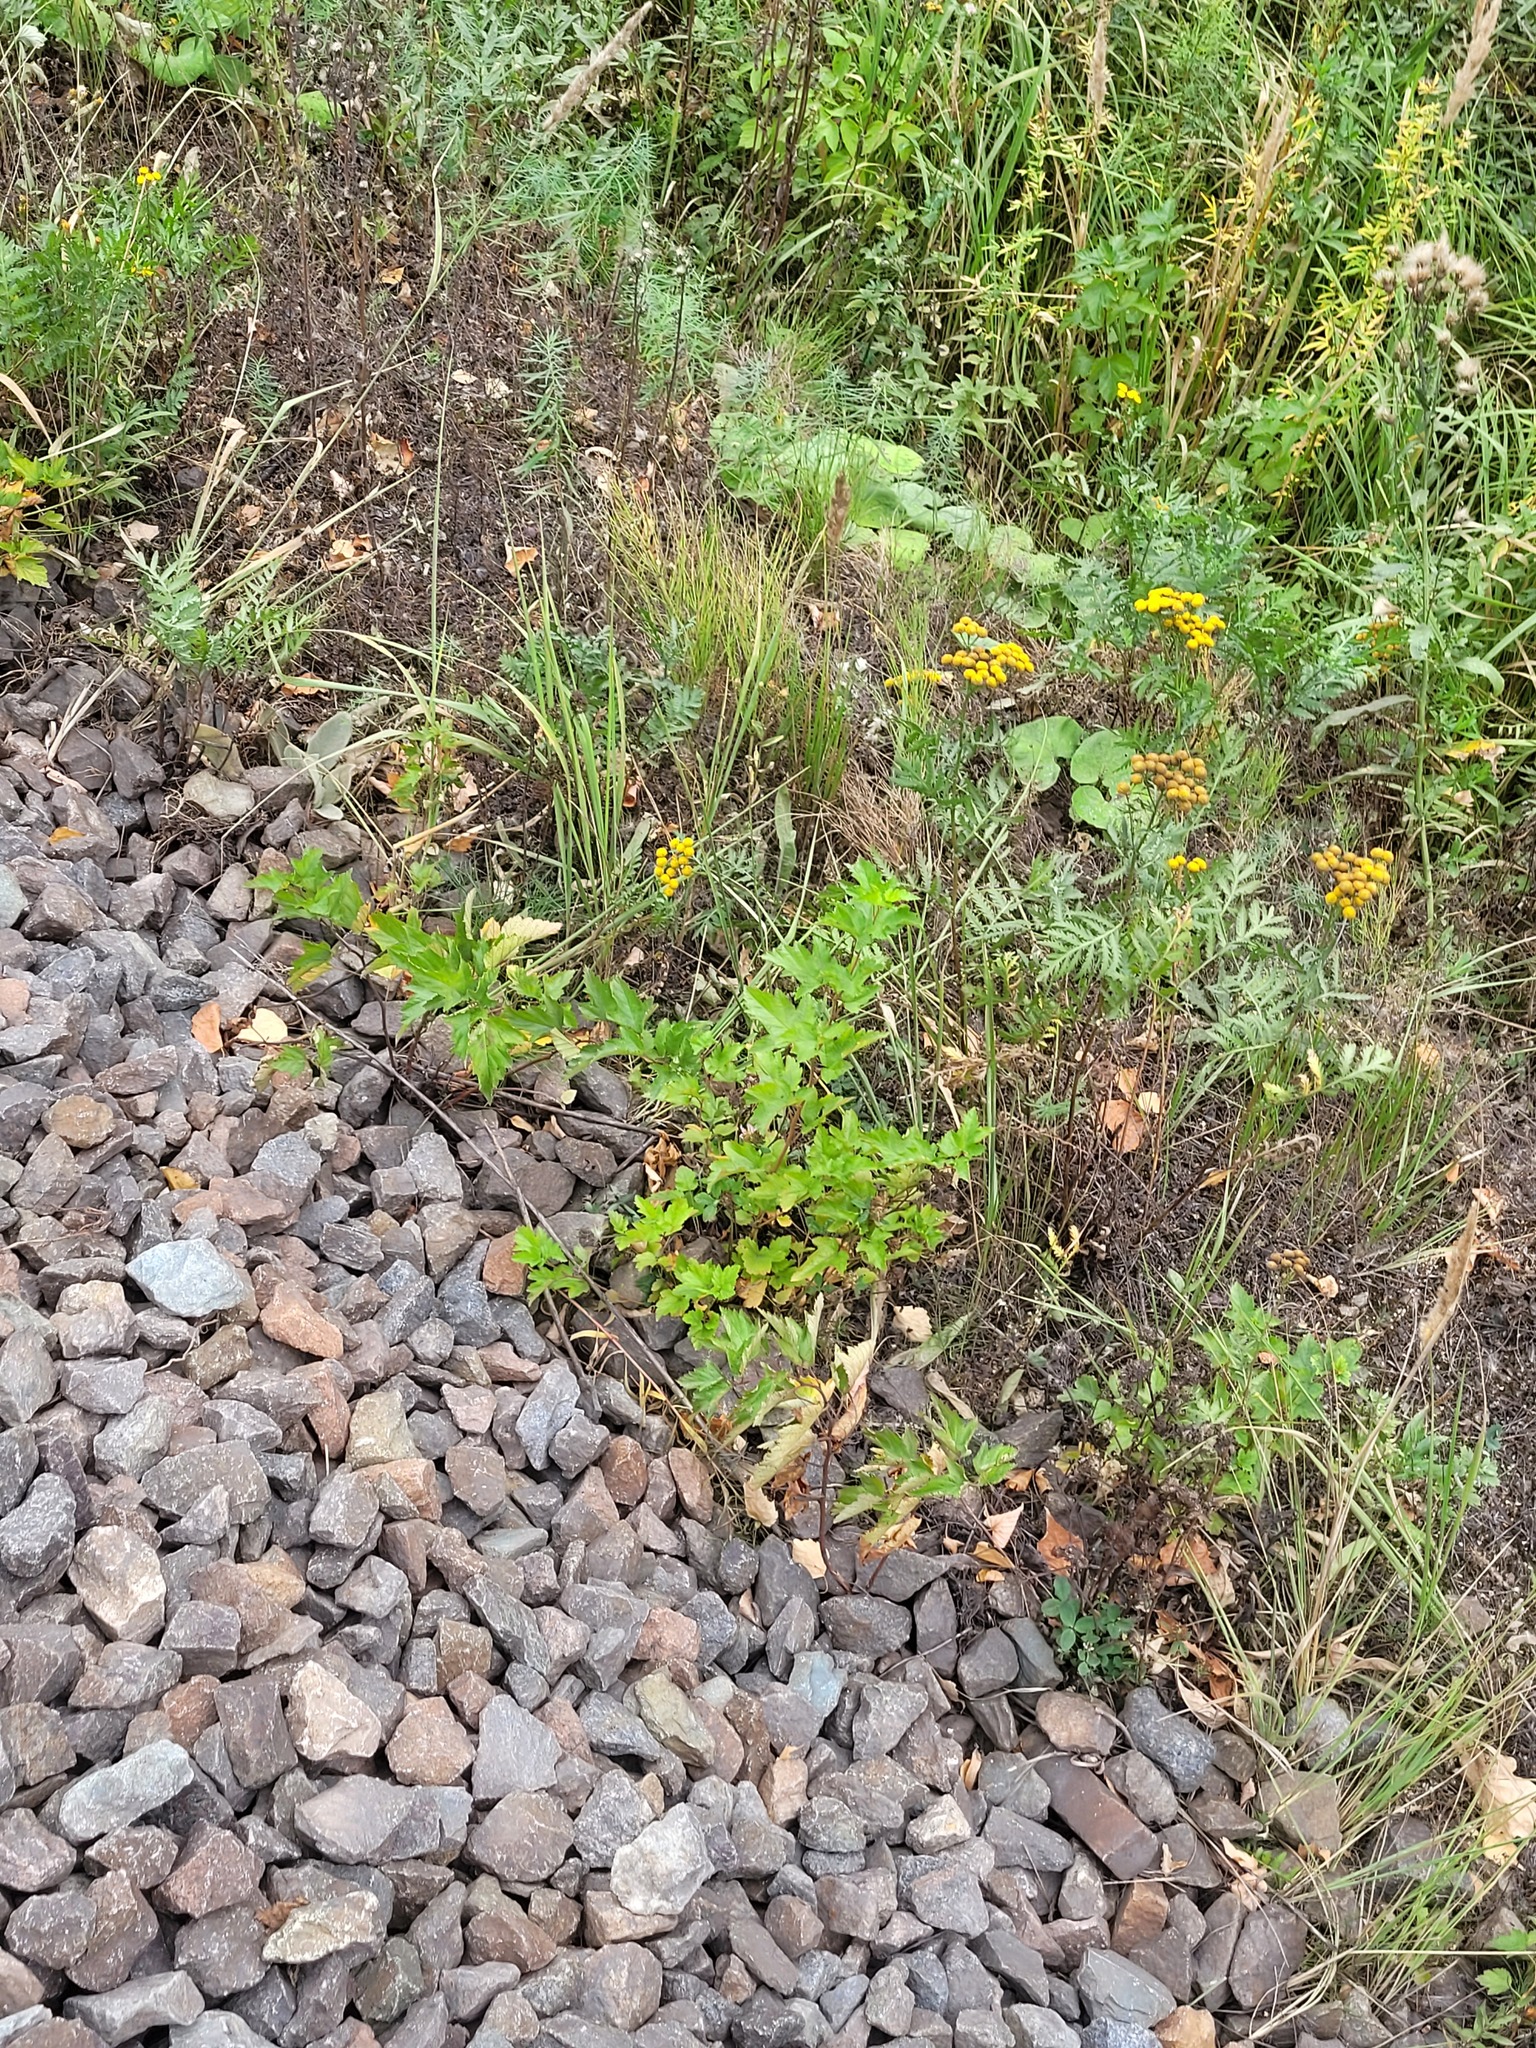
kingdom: Plantae
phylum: Tracheophyta
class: Magnoliopsida
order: Rosales
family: Rosaceae
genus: Physocarpus
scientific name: Physocarpus opulifolius
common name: Ninebark
